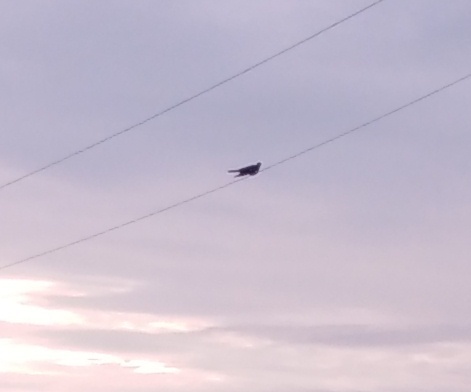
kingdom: Animalia
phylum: Chordata
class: Aves
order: Cuculiformes
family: Cuculidae
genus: Cuculus
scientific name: Cuculus canorus
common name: Common cuckoo
